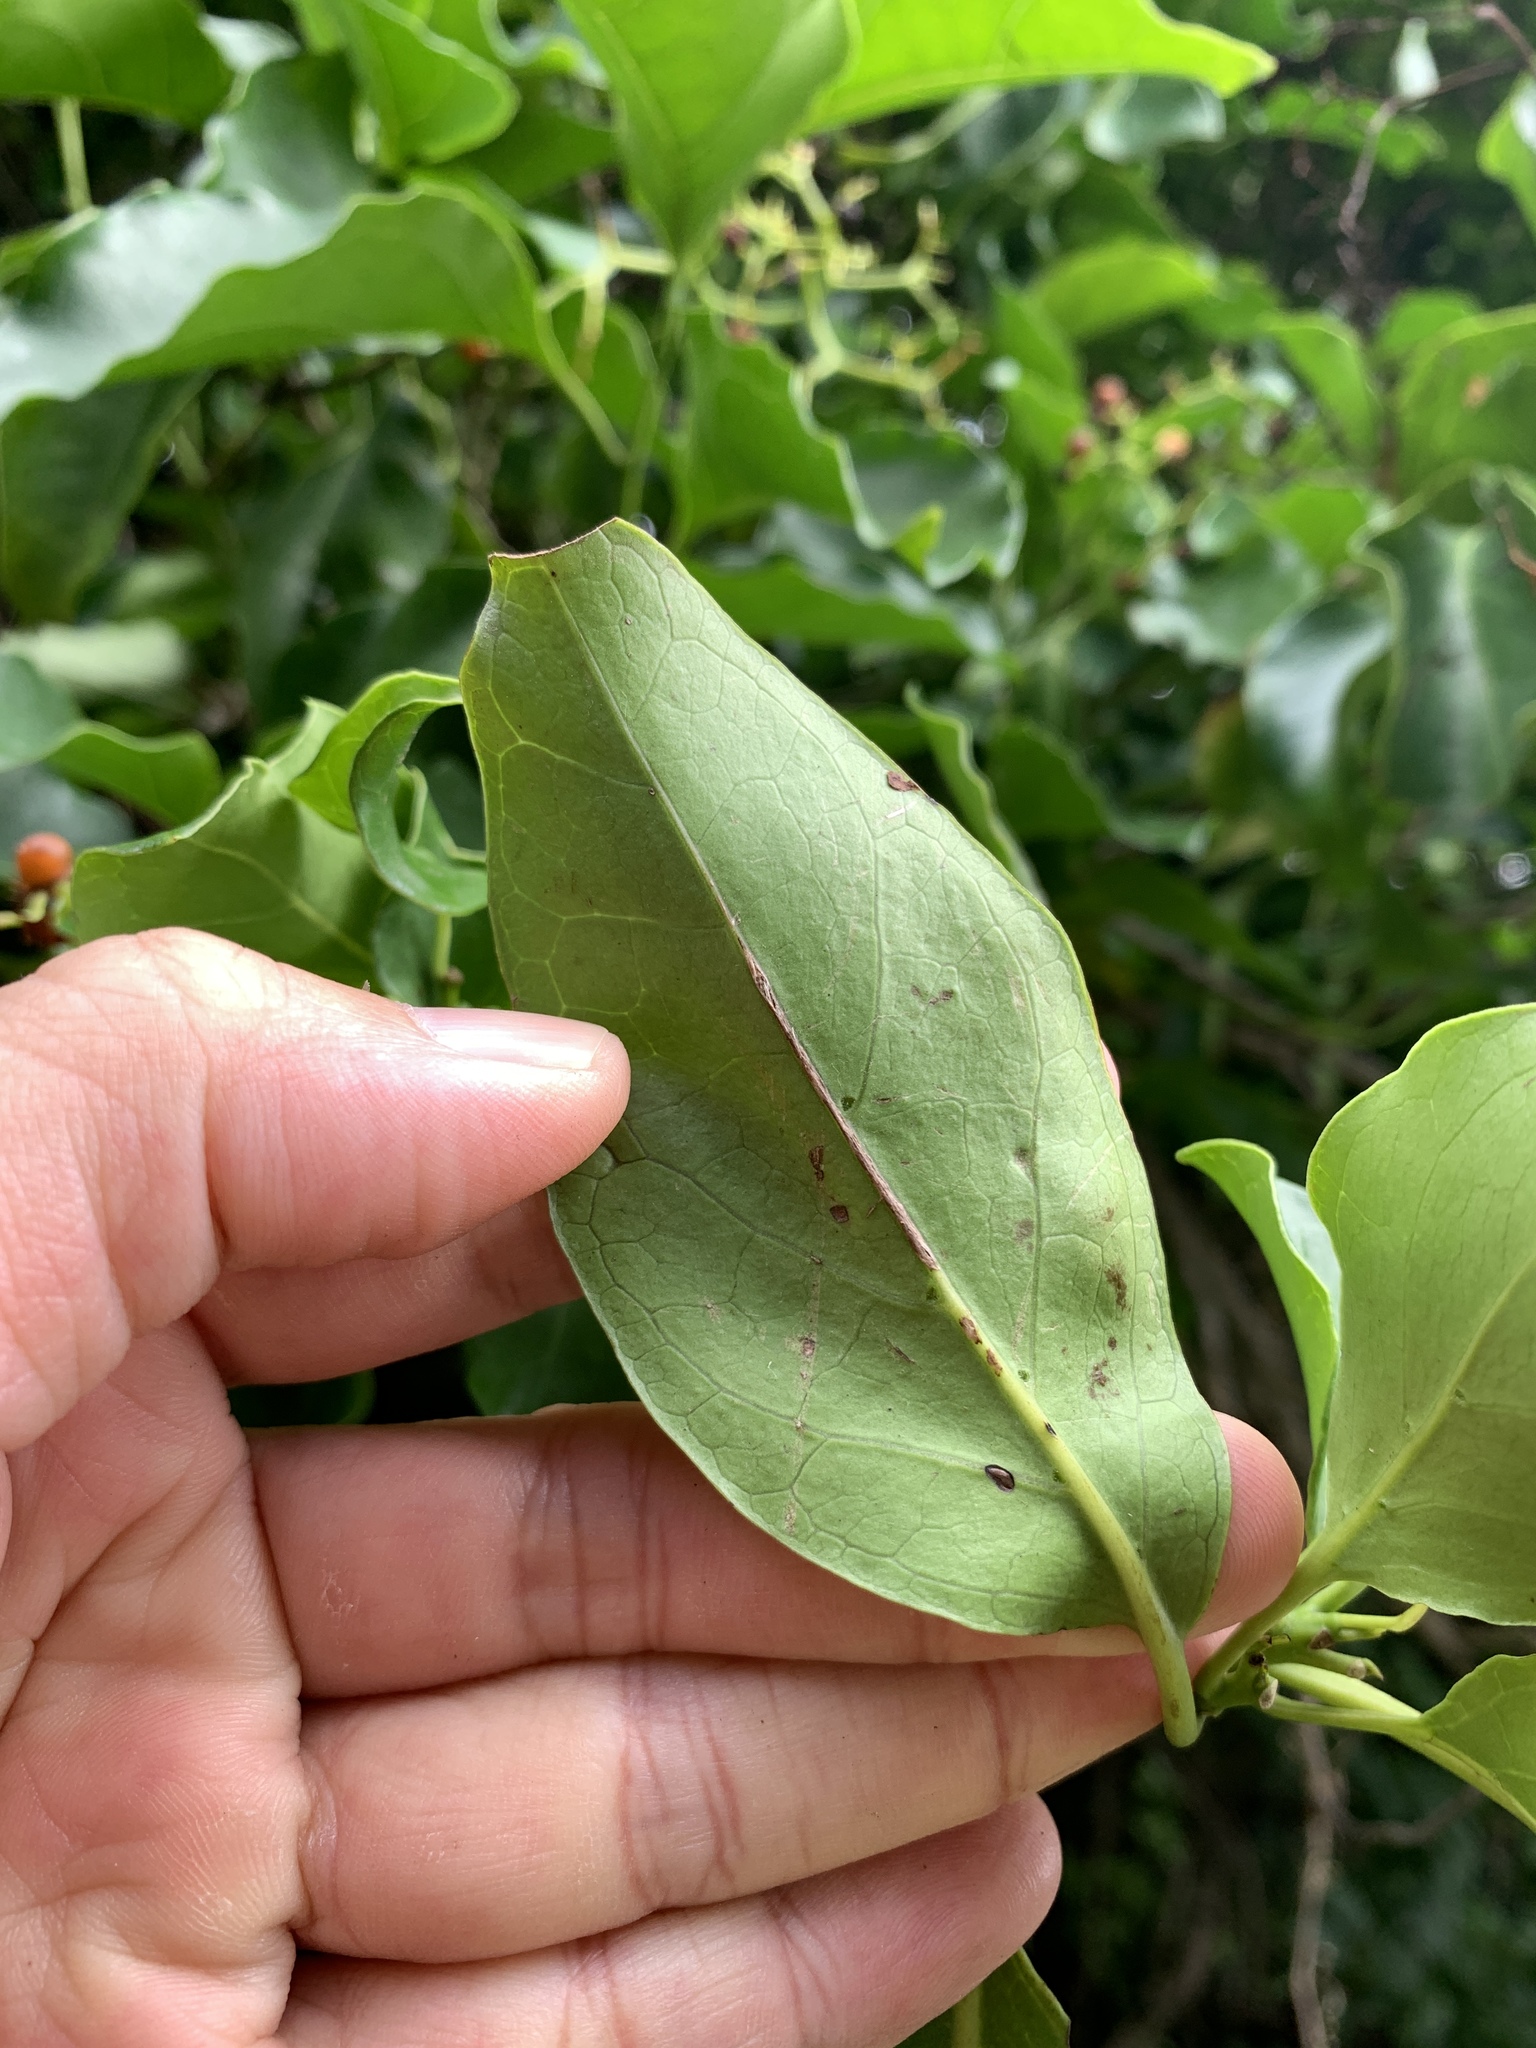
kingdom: Plantae
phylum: Tracheophyta
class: Magnoliopsida
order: Boraginales
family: Ehretiaceae
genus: Ehretia
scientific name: Ehretia philippinensis
